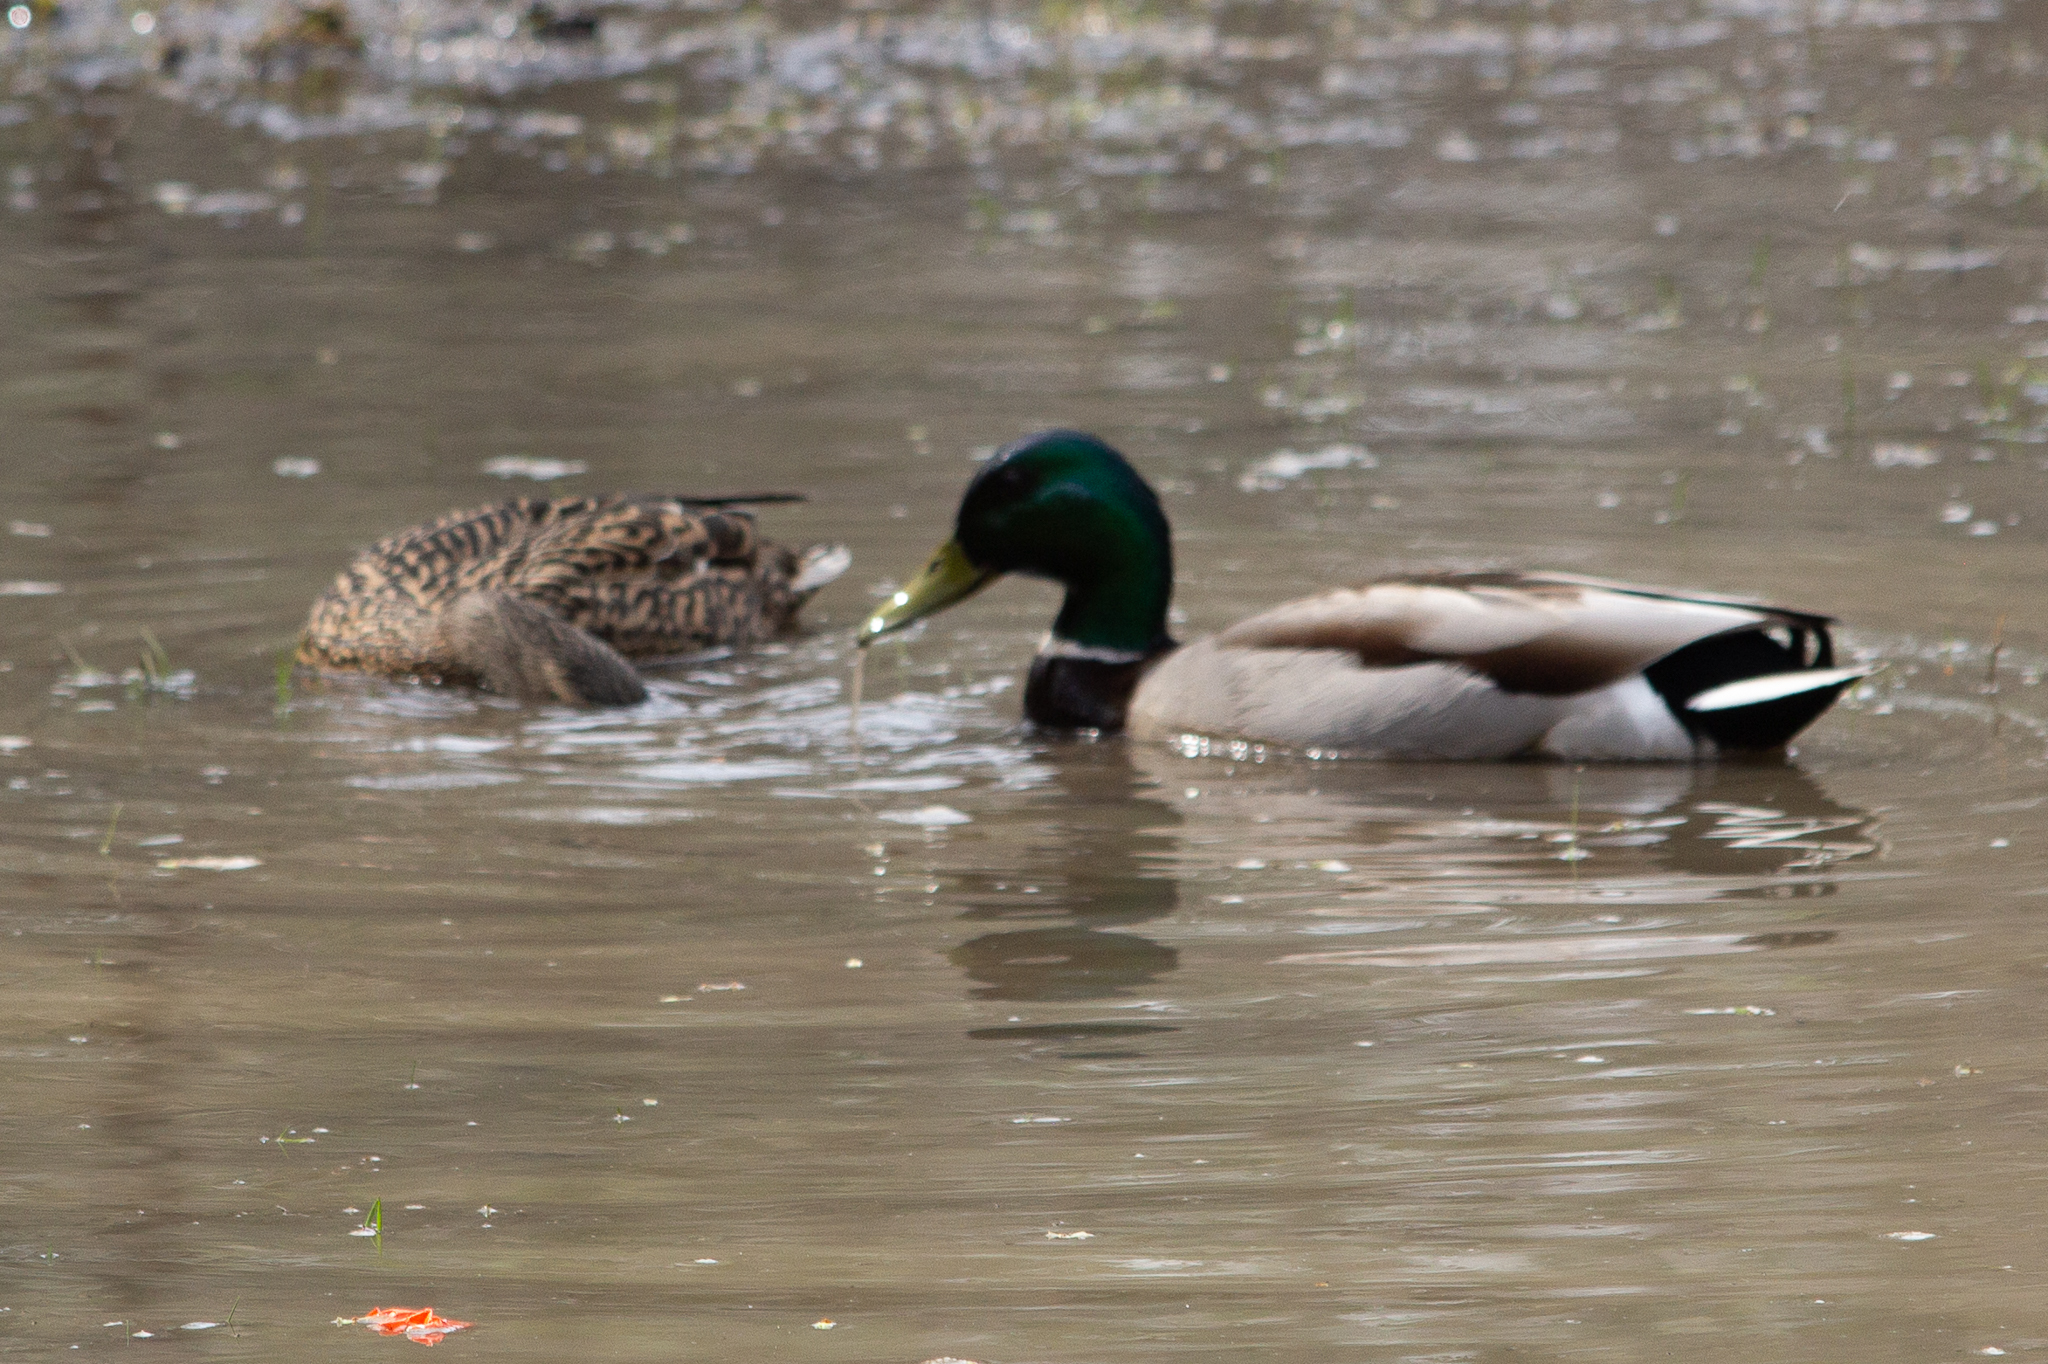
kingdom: Animalia
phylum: Chordata
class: Aves
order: Anseriformes
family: Anatidae
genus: Anas
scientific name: Anas platyrhynchos
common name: Mallard
